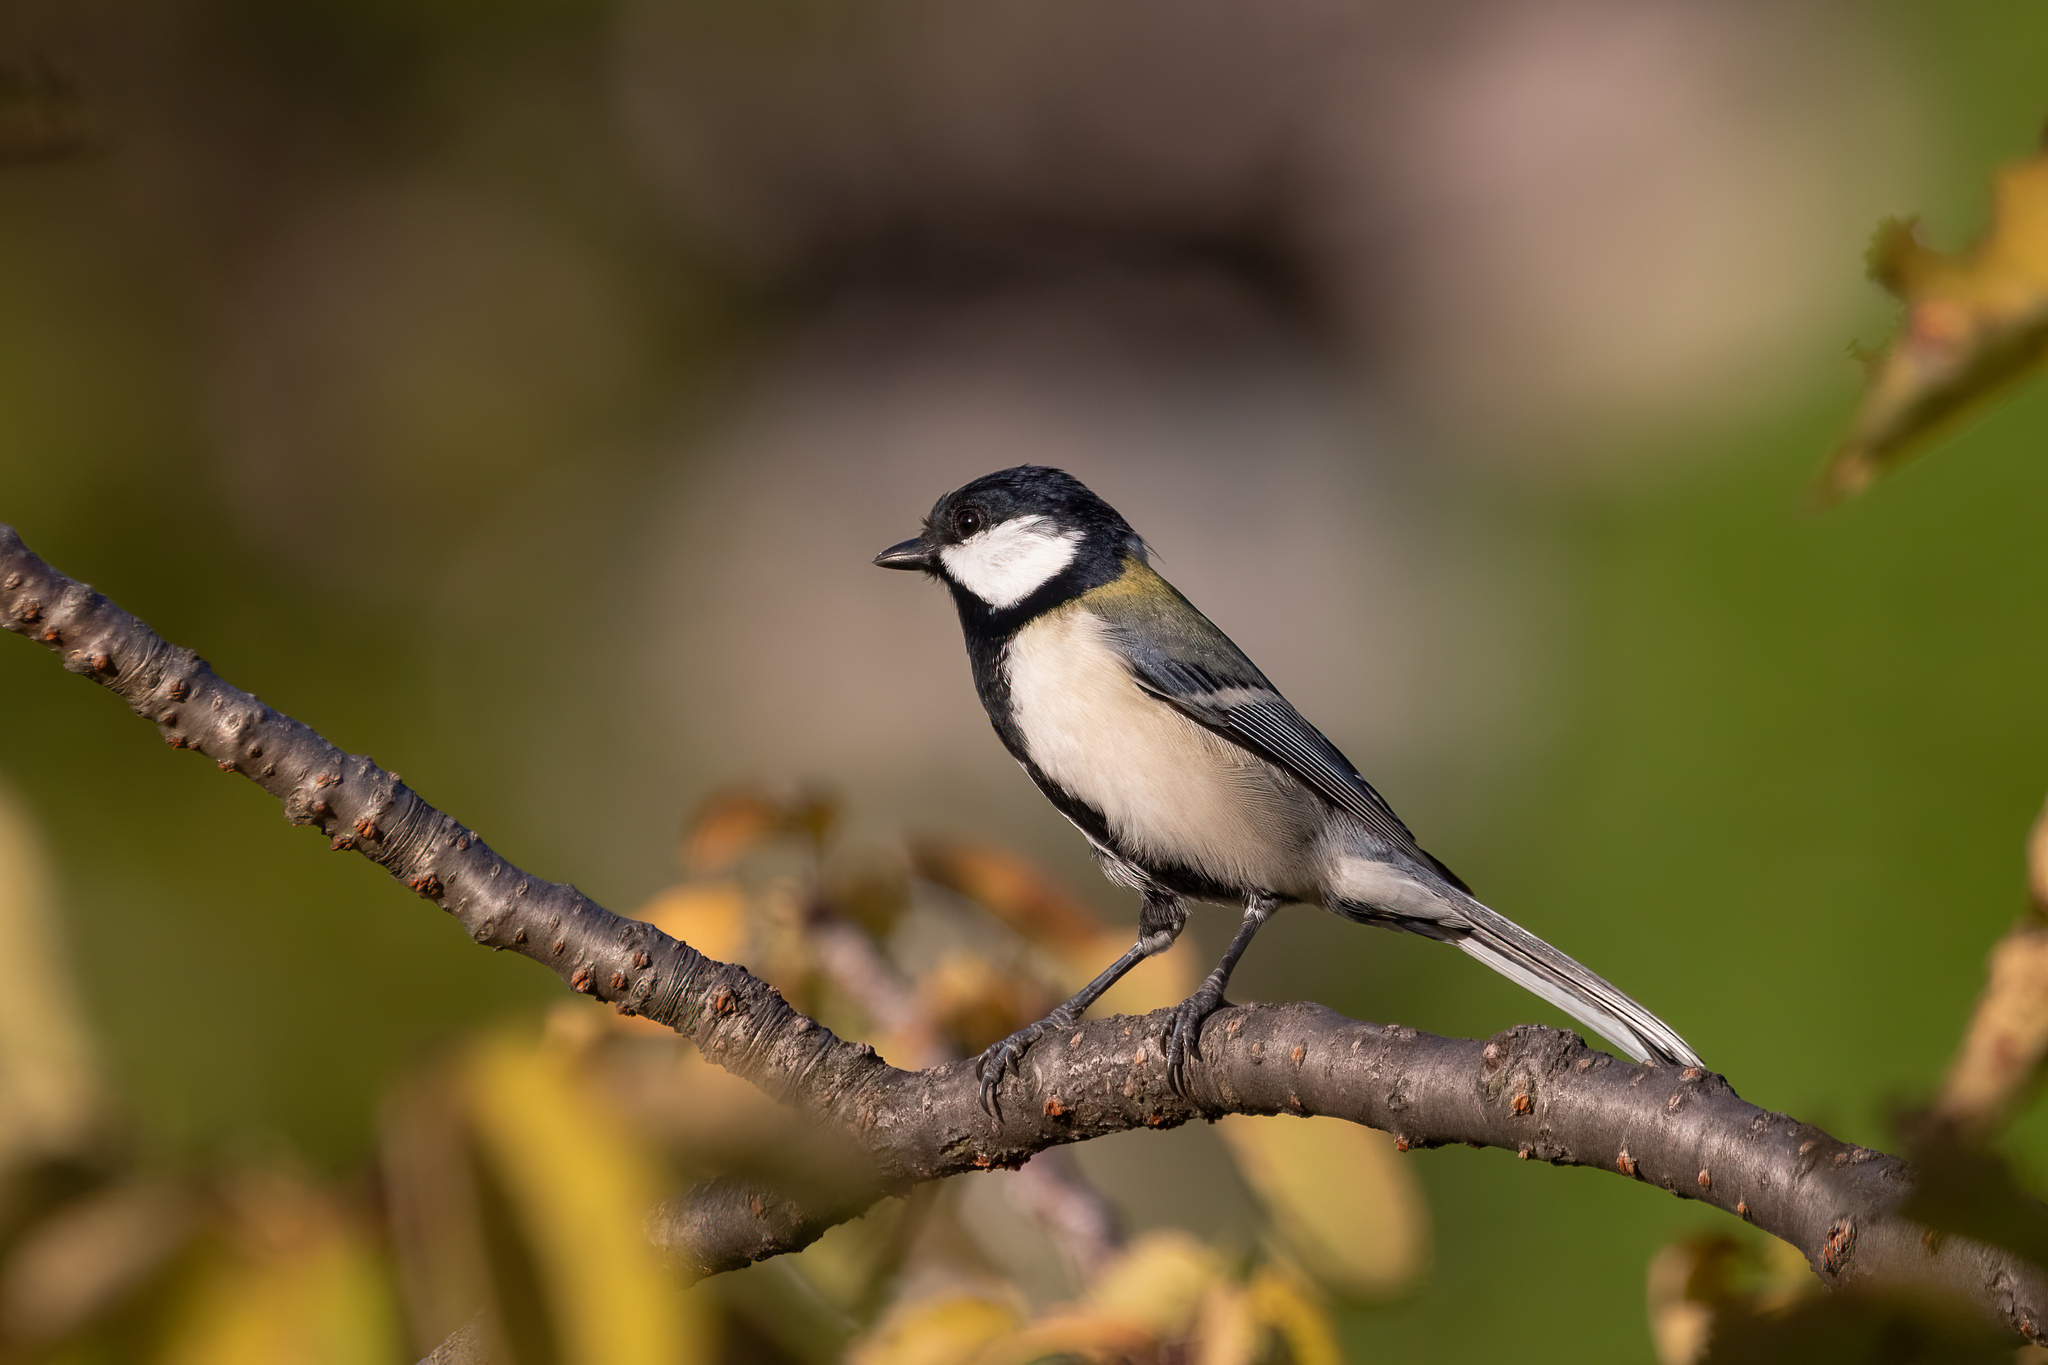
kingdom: Animalia
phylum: Chordata
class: Aves
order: Passeriformes
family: Paridae
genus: Parus
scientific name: Parus minor
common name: Japanese tit
